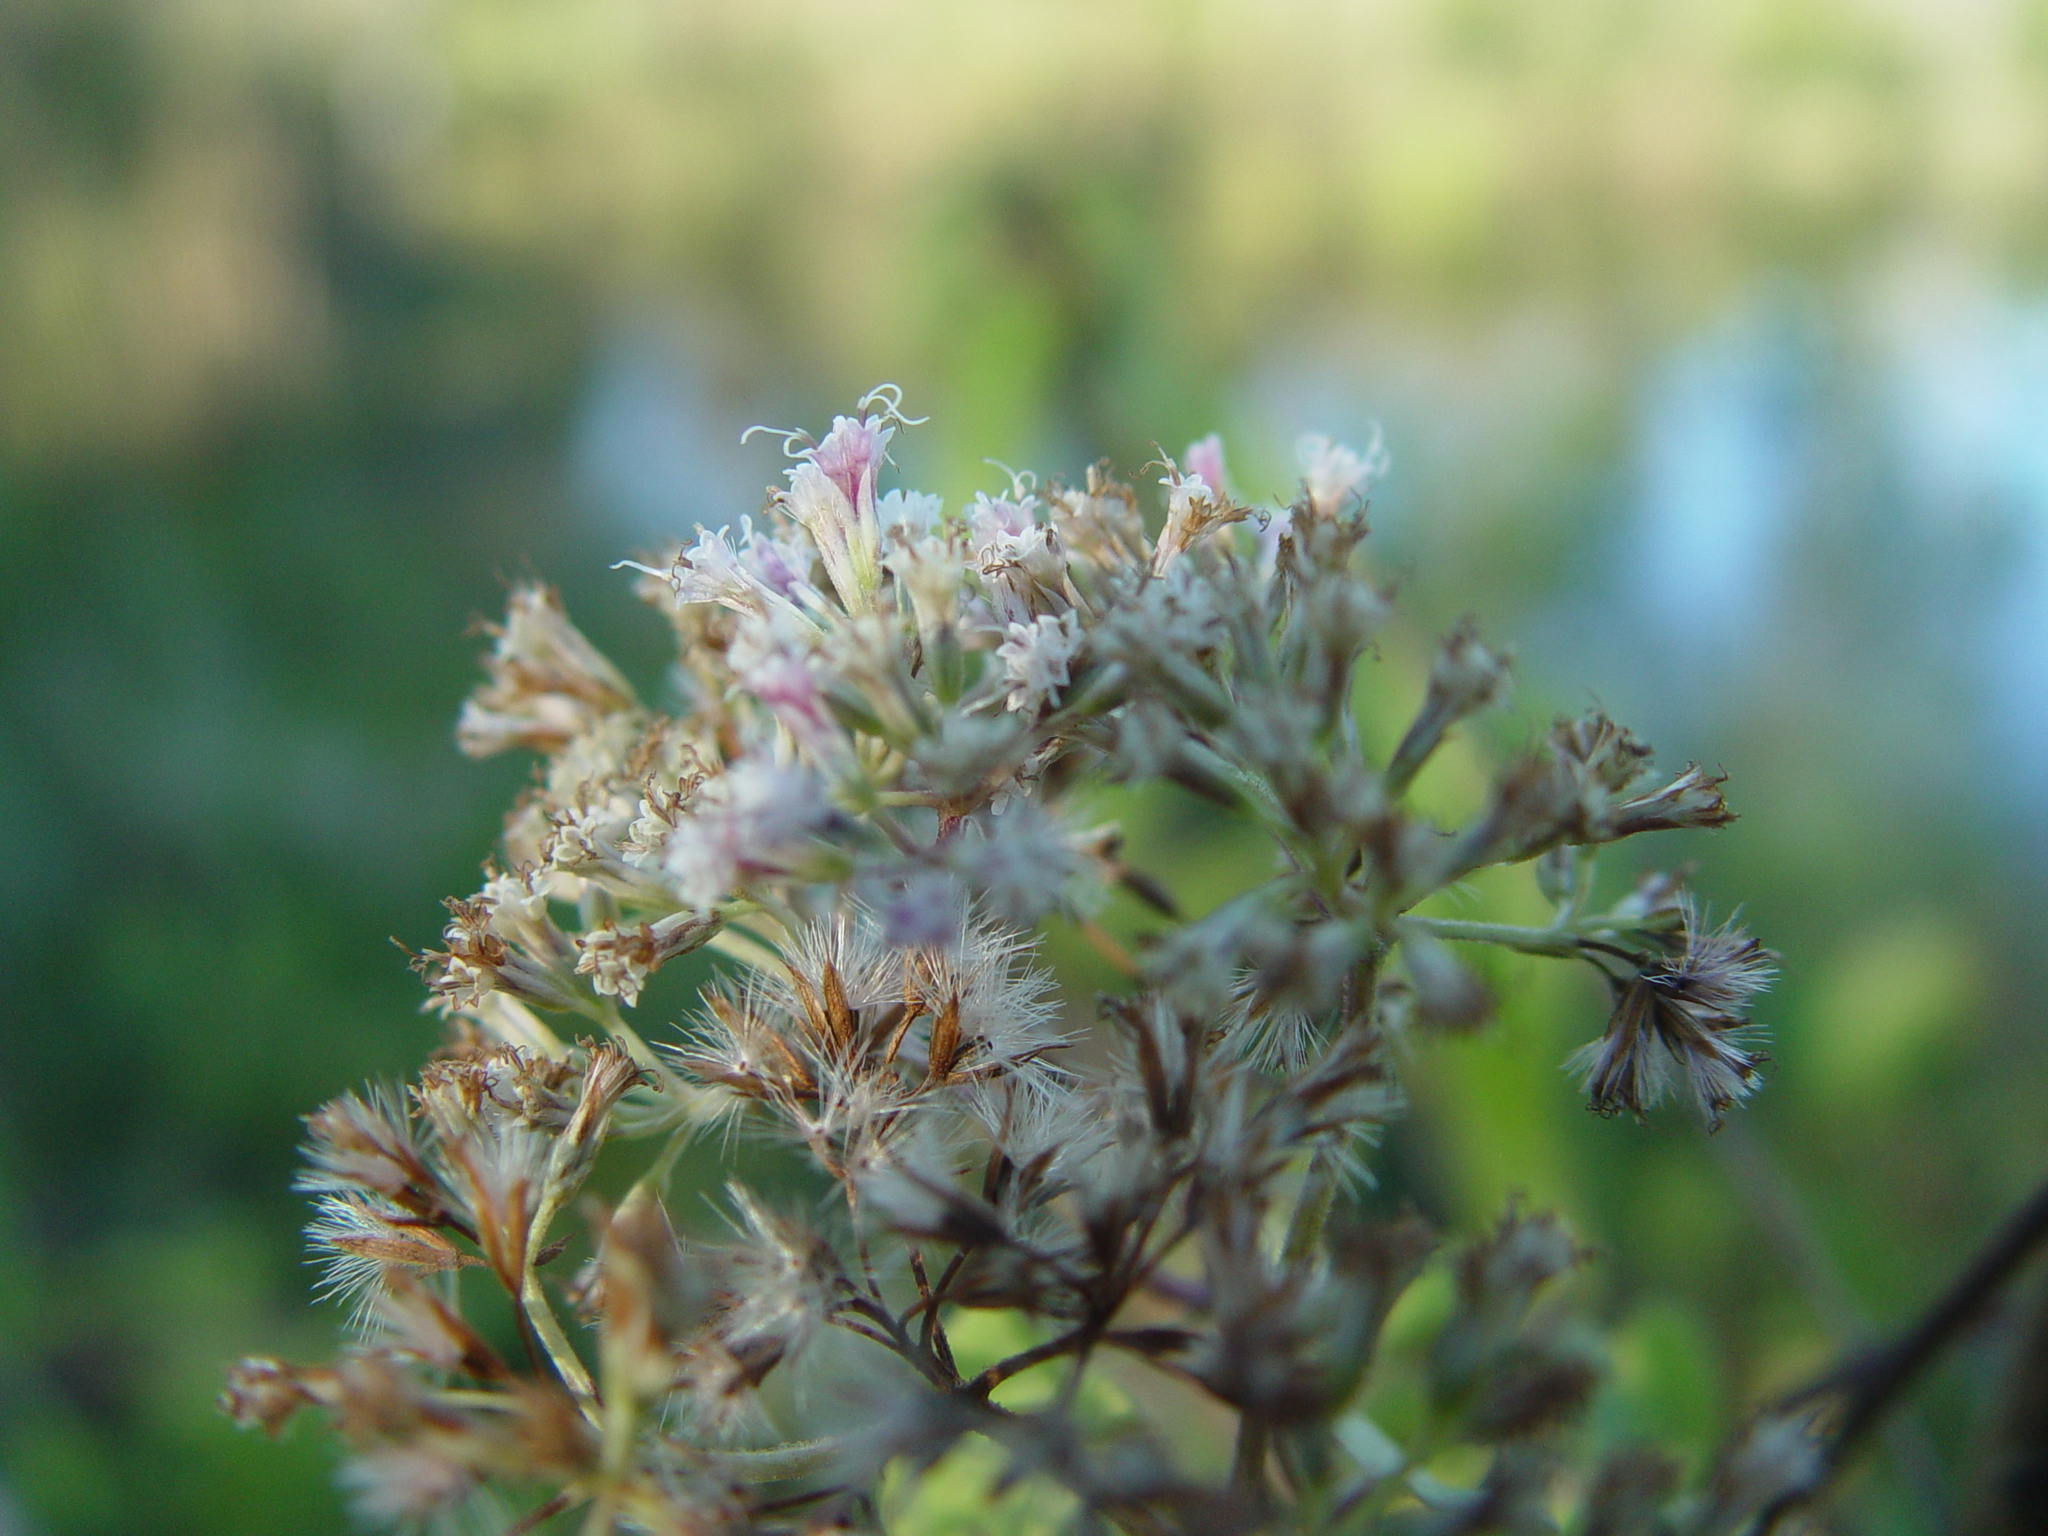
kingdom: Plantae
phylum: Tracheophyta
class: Magnoliopsida
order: Asterales
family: Asteraceae
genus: Mikania
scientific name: Mikania scandens
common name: Climbing hempvine
